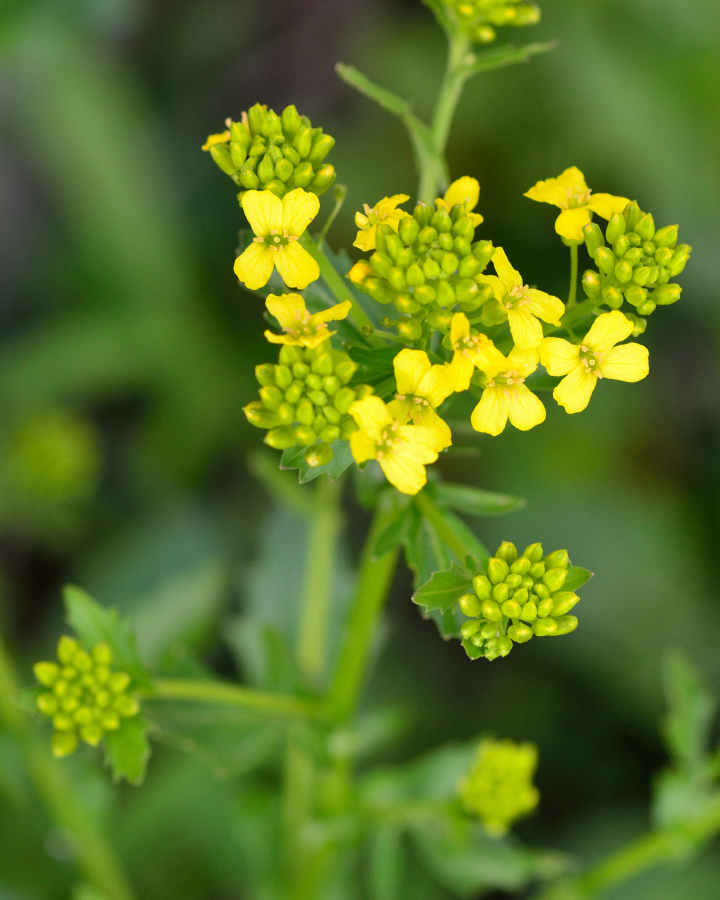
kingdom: Plantae
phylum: Tracheophyta
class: Magnoliopsida
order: Brassicales
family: Brassicaceae
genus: Barbarea
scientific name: Barbarea vulgaris
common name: Cressy-greens
